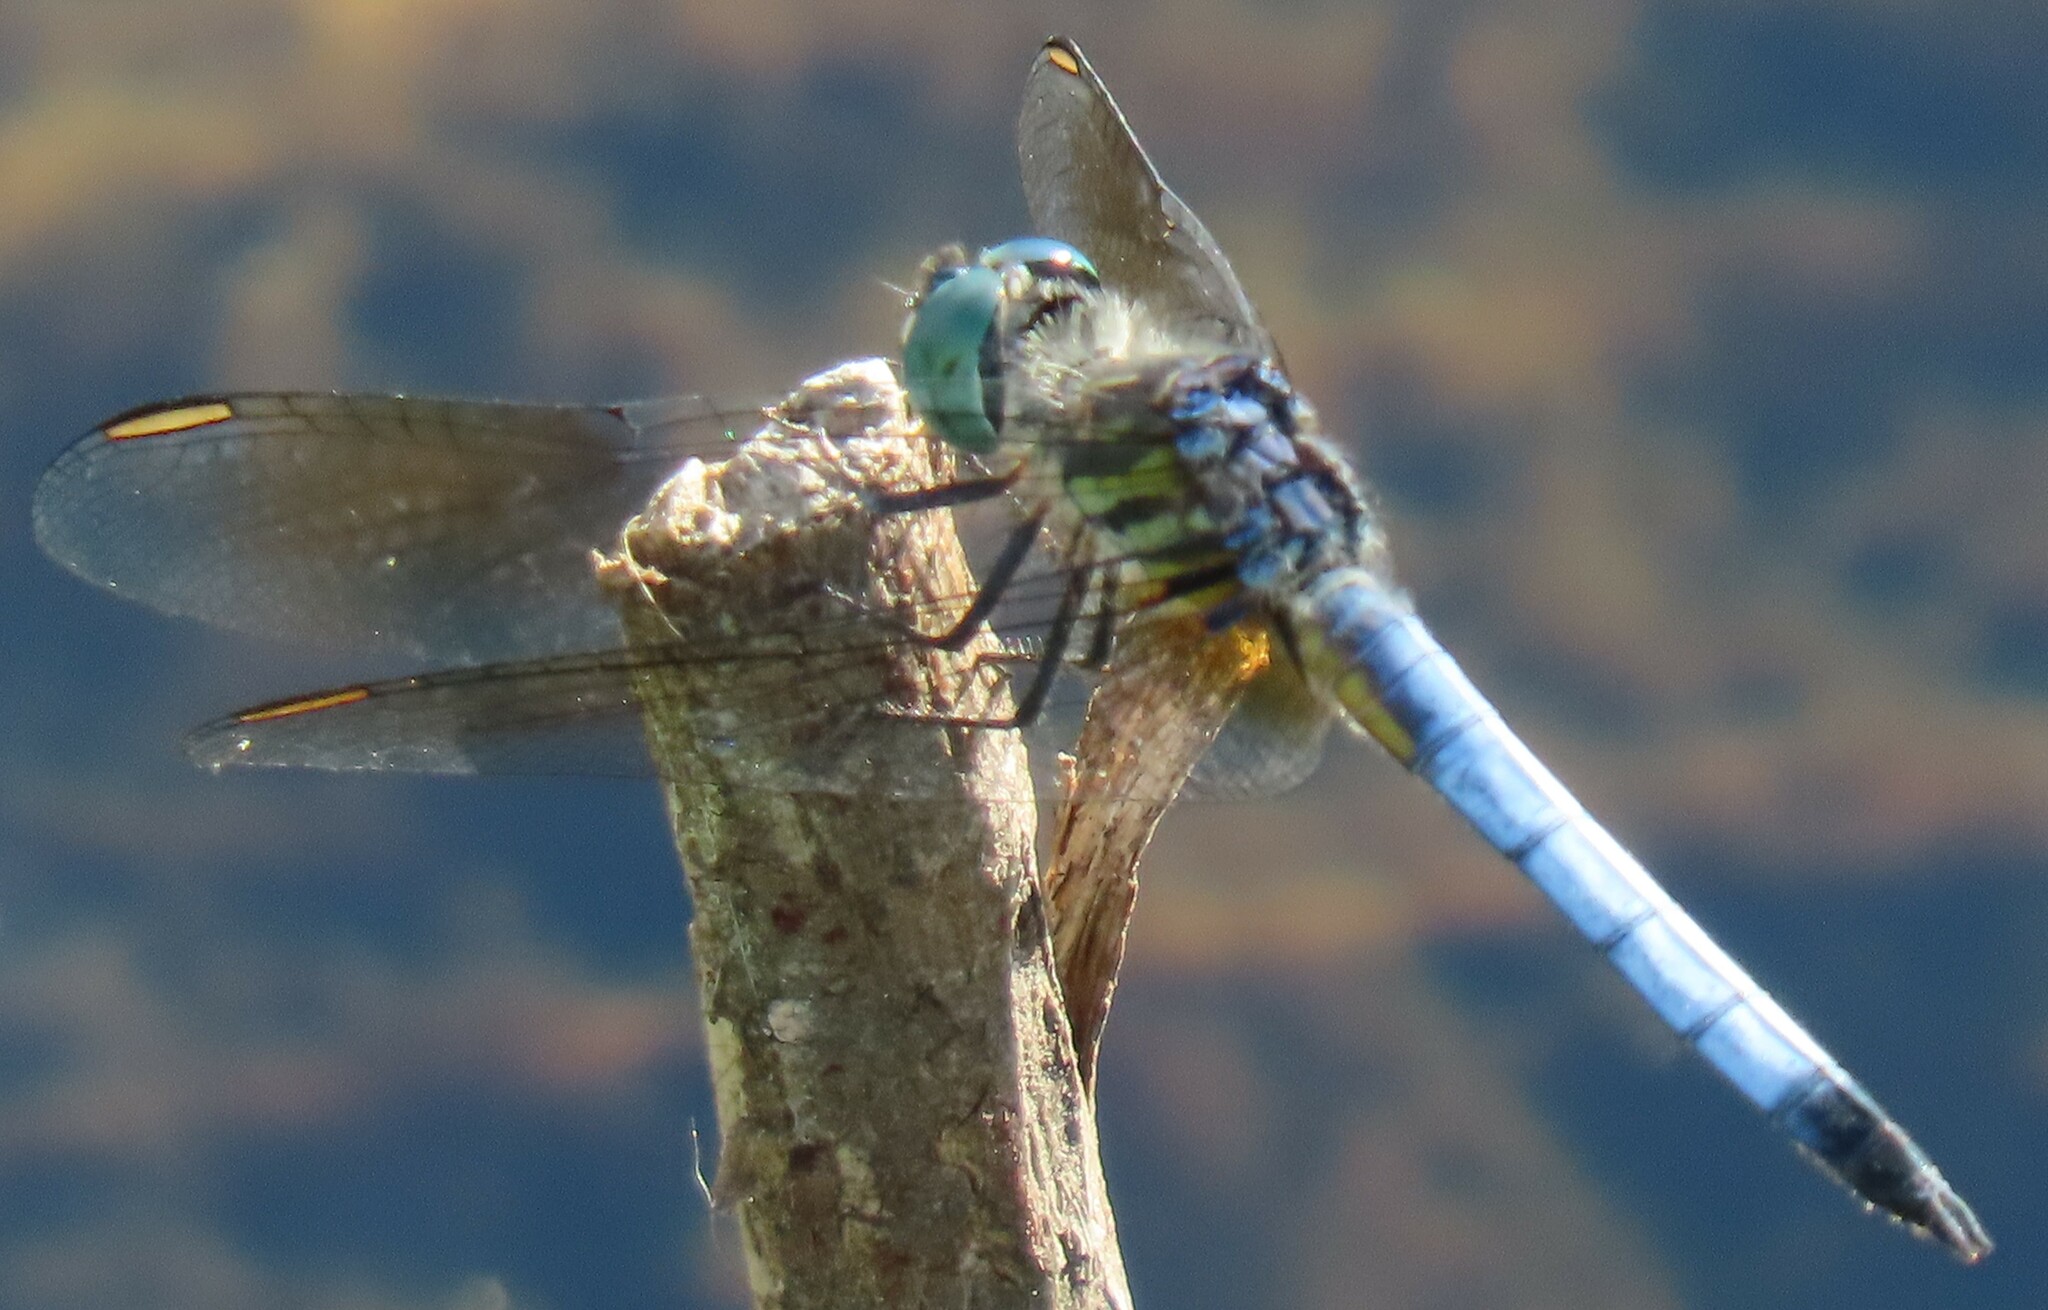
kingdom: Animalia
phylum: Arthropoda
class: Insecta
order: Odonata
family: Libellulidae
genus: Pachydiplax
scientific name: Pachydiplax longipennis
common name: Blue dasher
